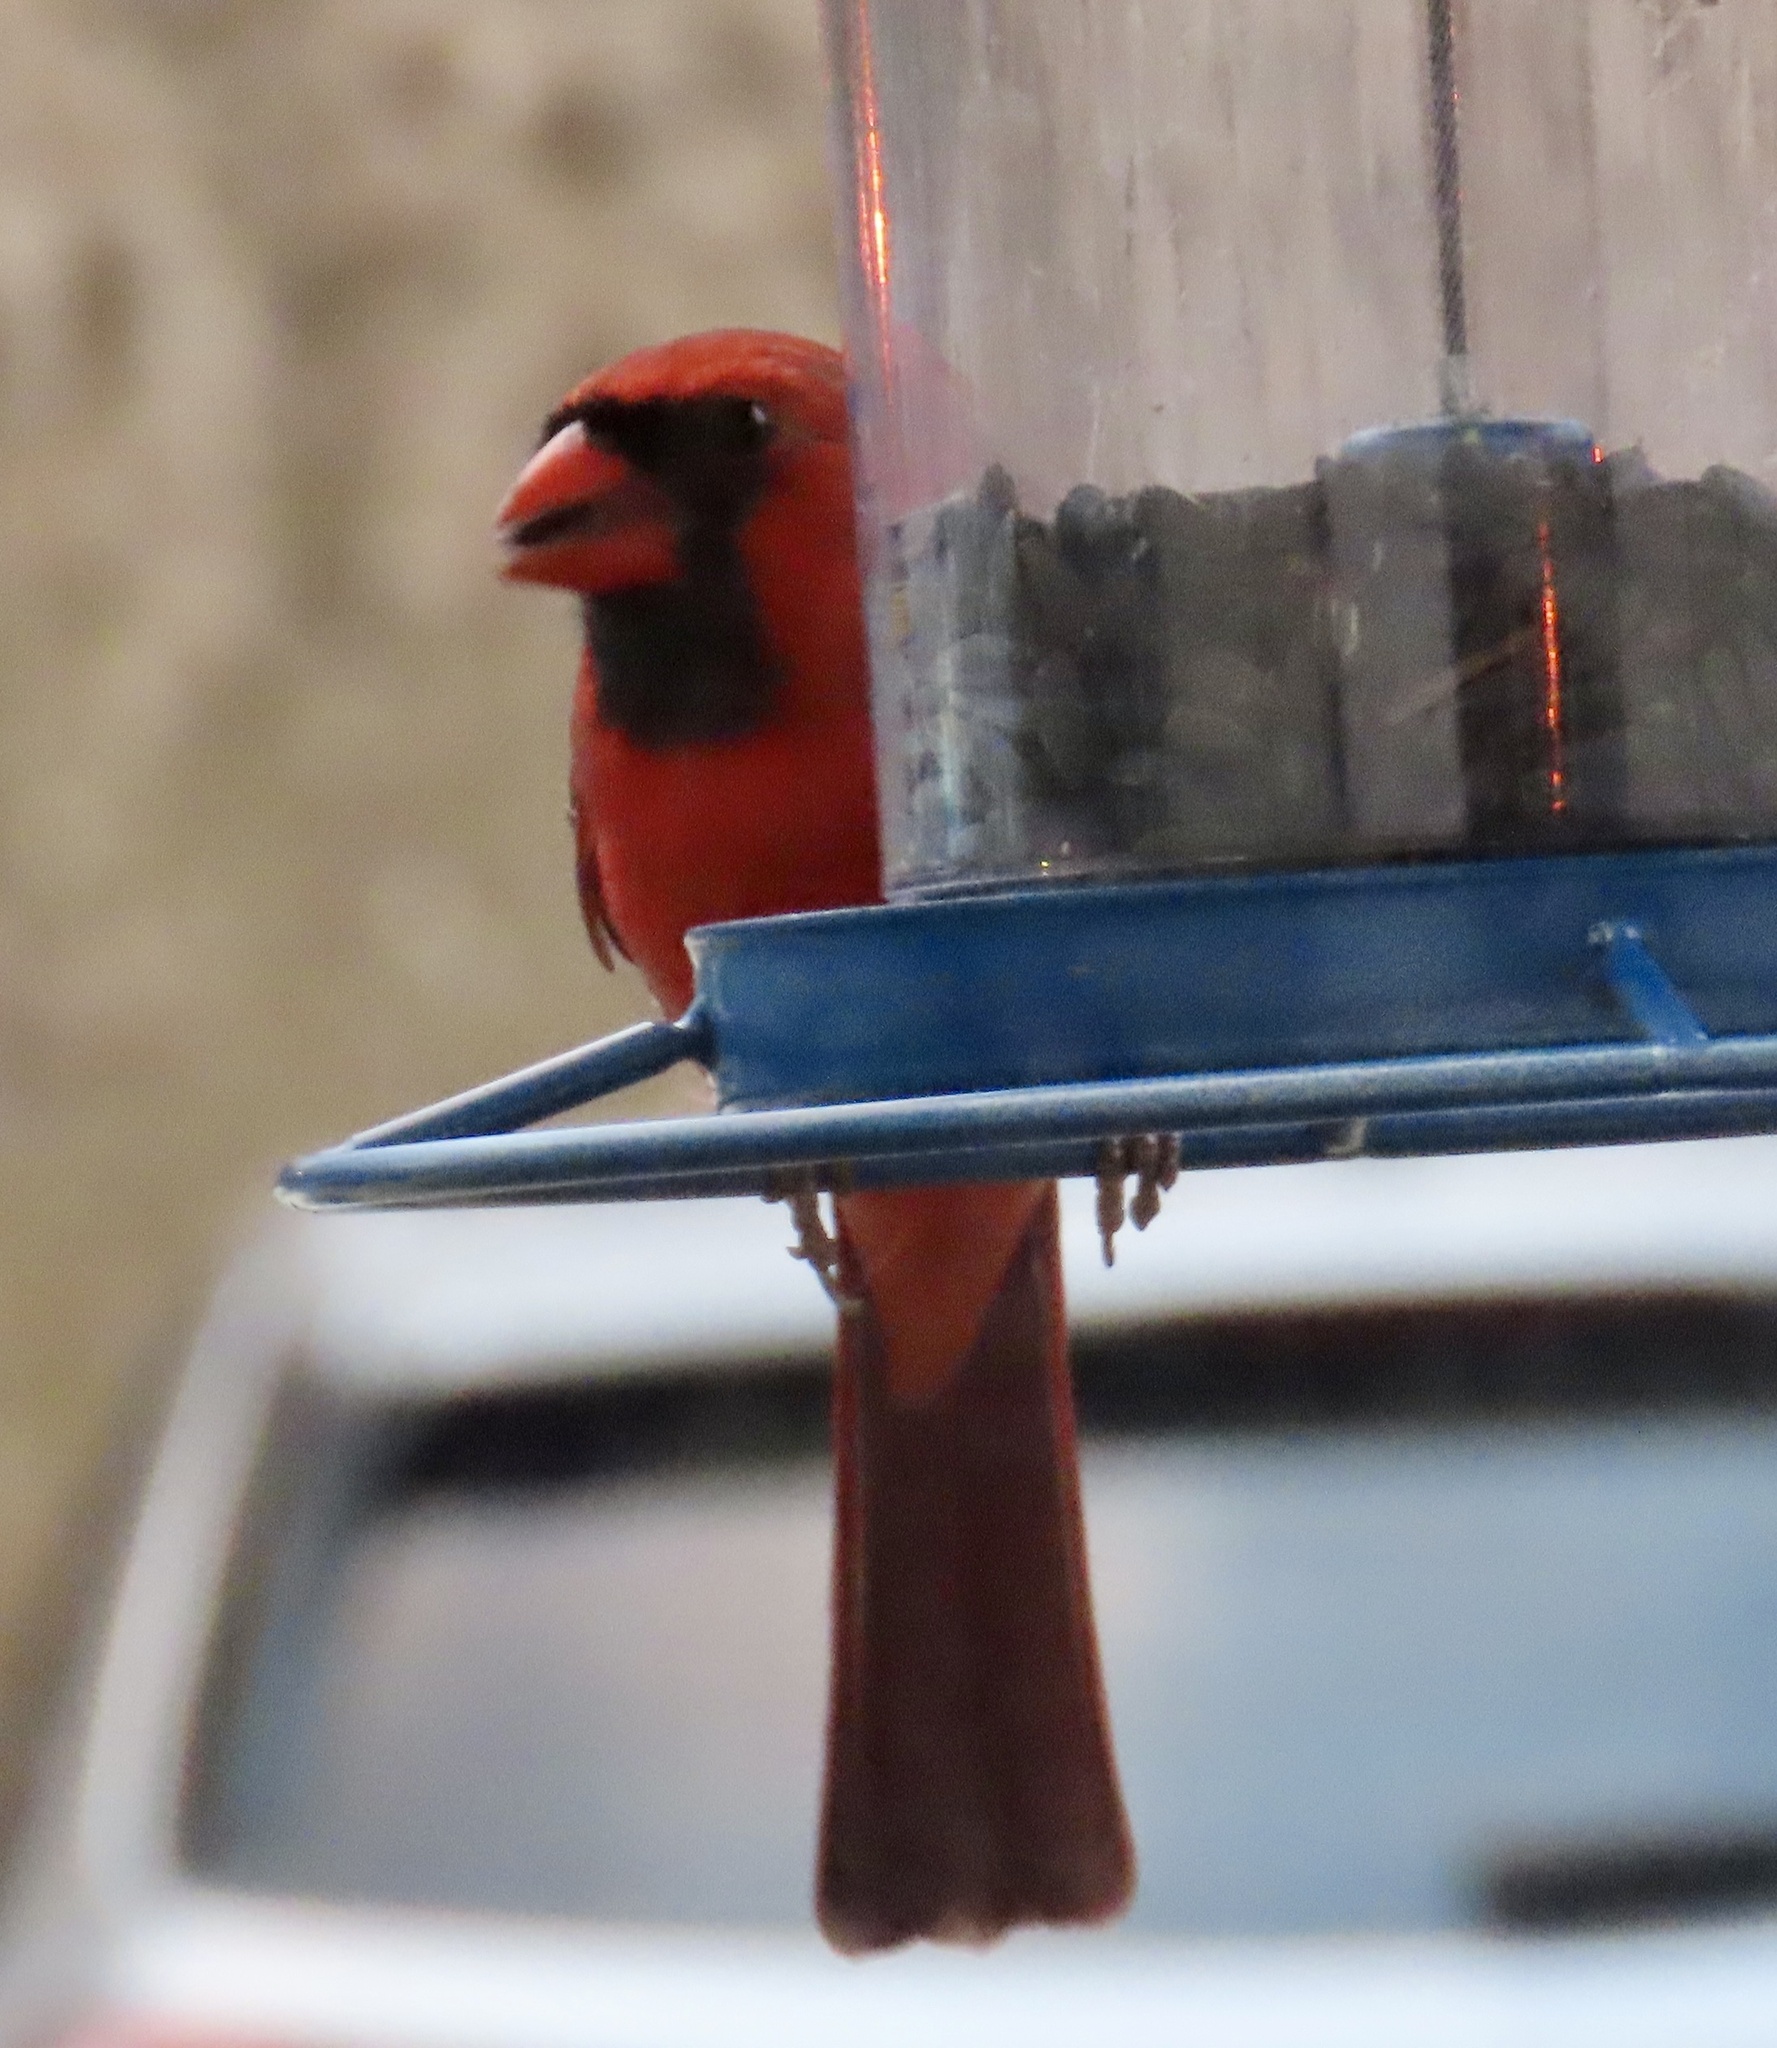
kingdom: Animalia
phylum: Chordata
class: Aves
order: Passeriformes
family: Cardinalidae
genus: Cardinalis
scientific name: Cardinalis cardinalis
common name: Northern cardinal
